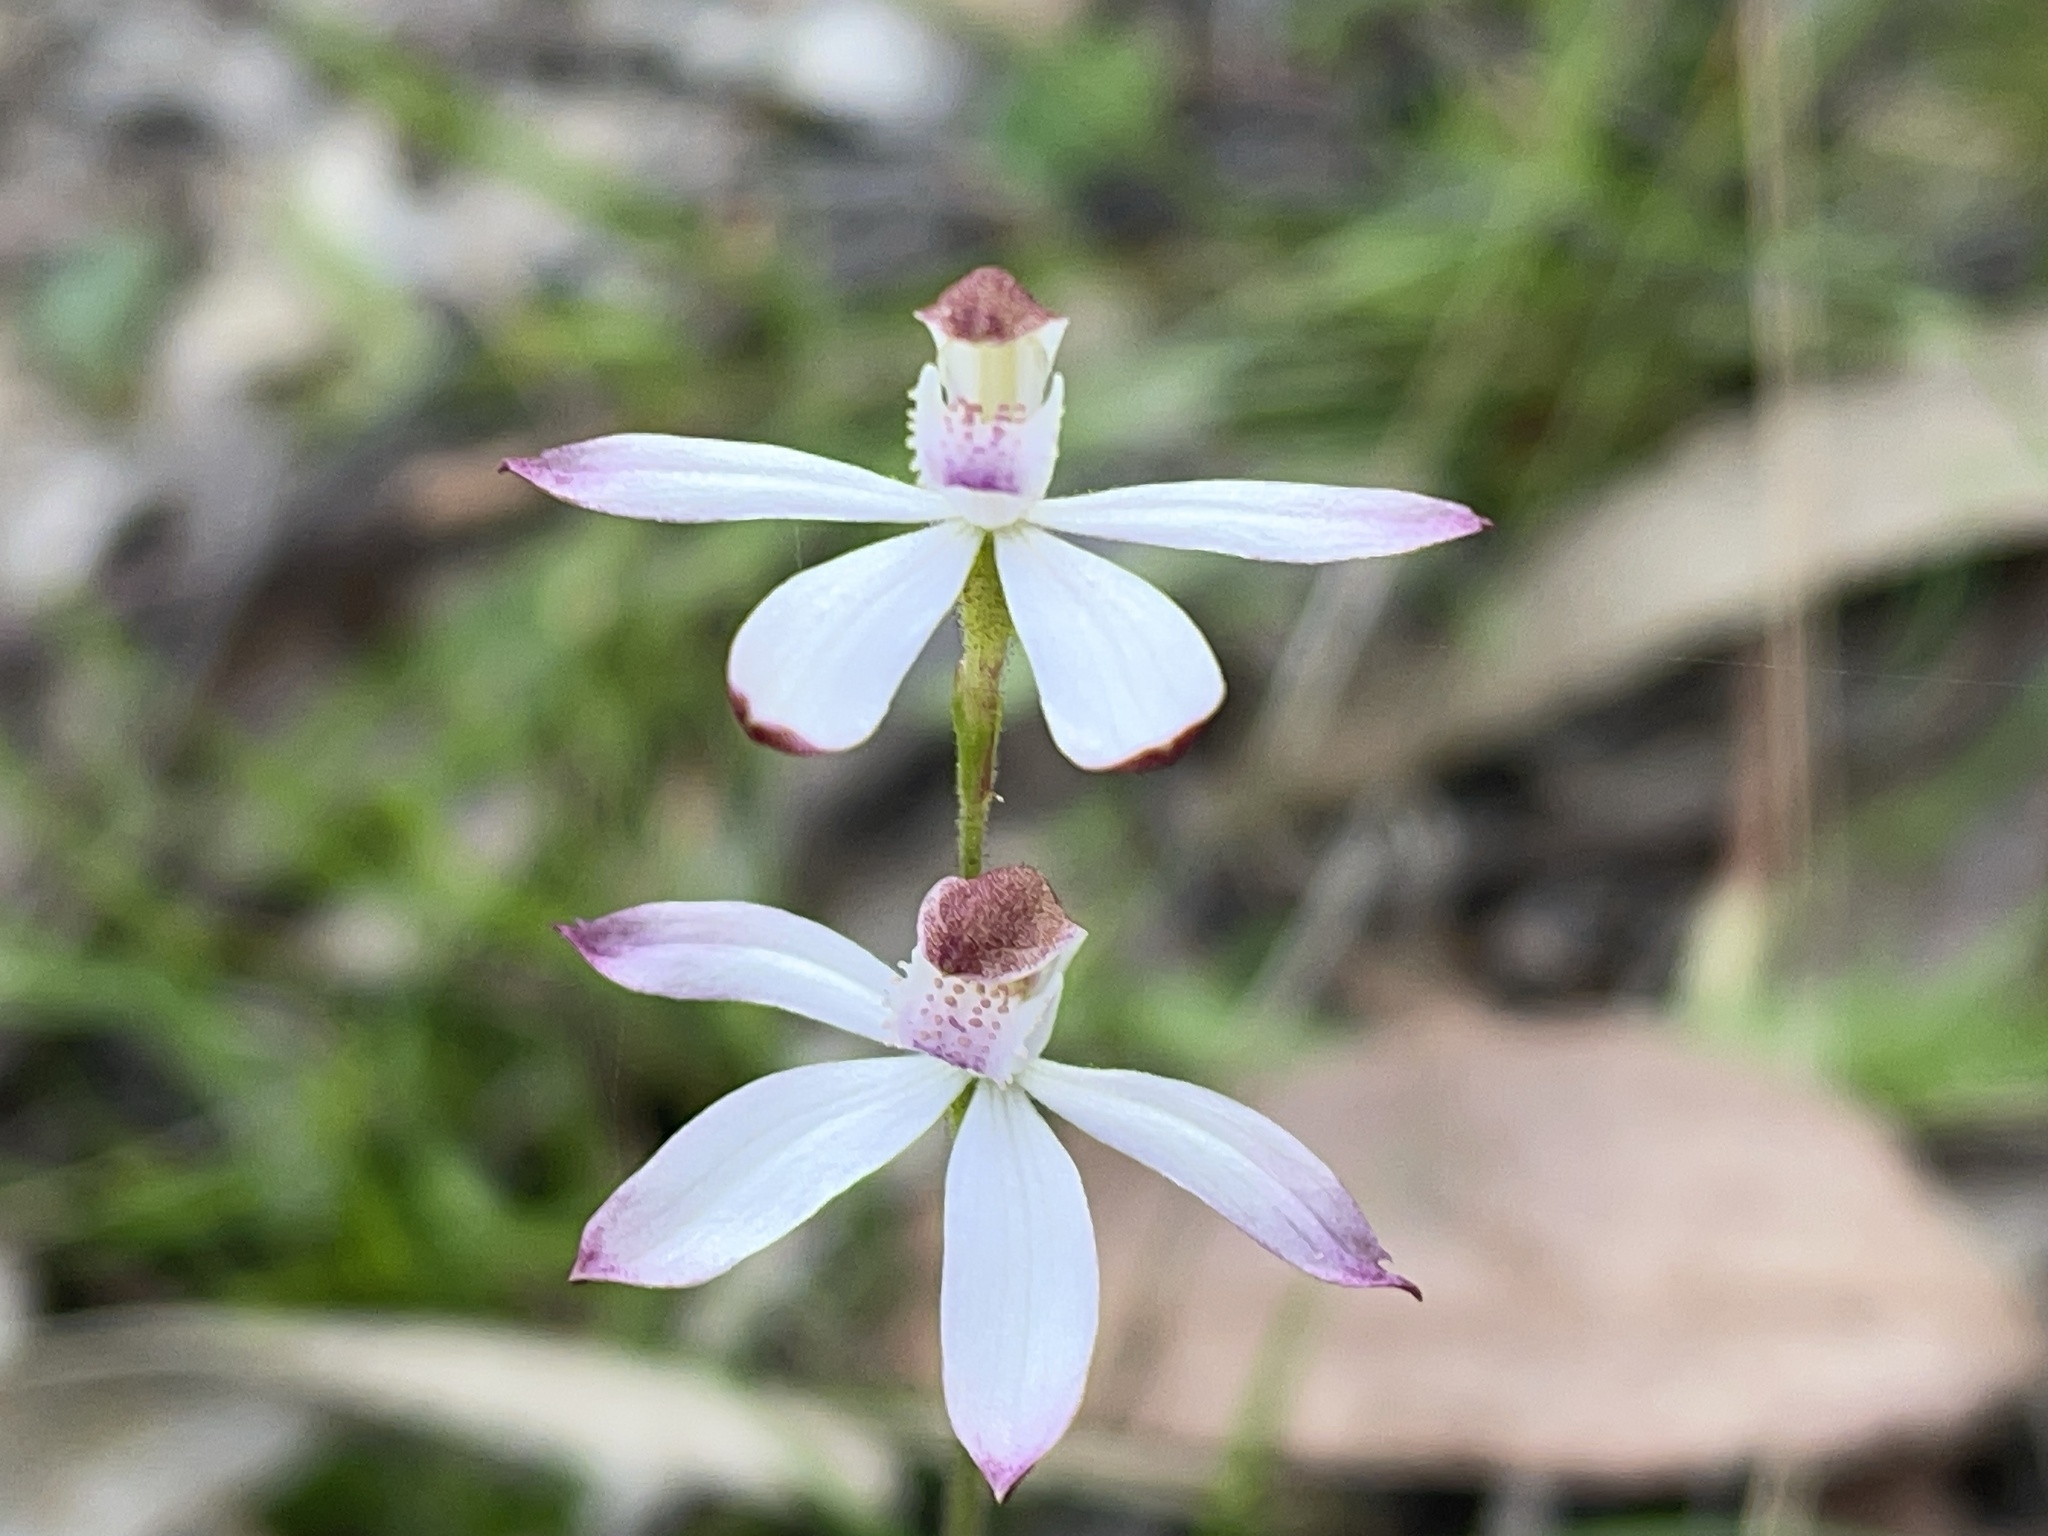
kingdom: Plantae
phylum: Tracheophyta
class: Liliopsida
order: Asparagales
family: Orchidaceae
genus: Caladenia
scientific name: Caladenia moschata
